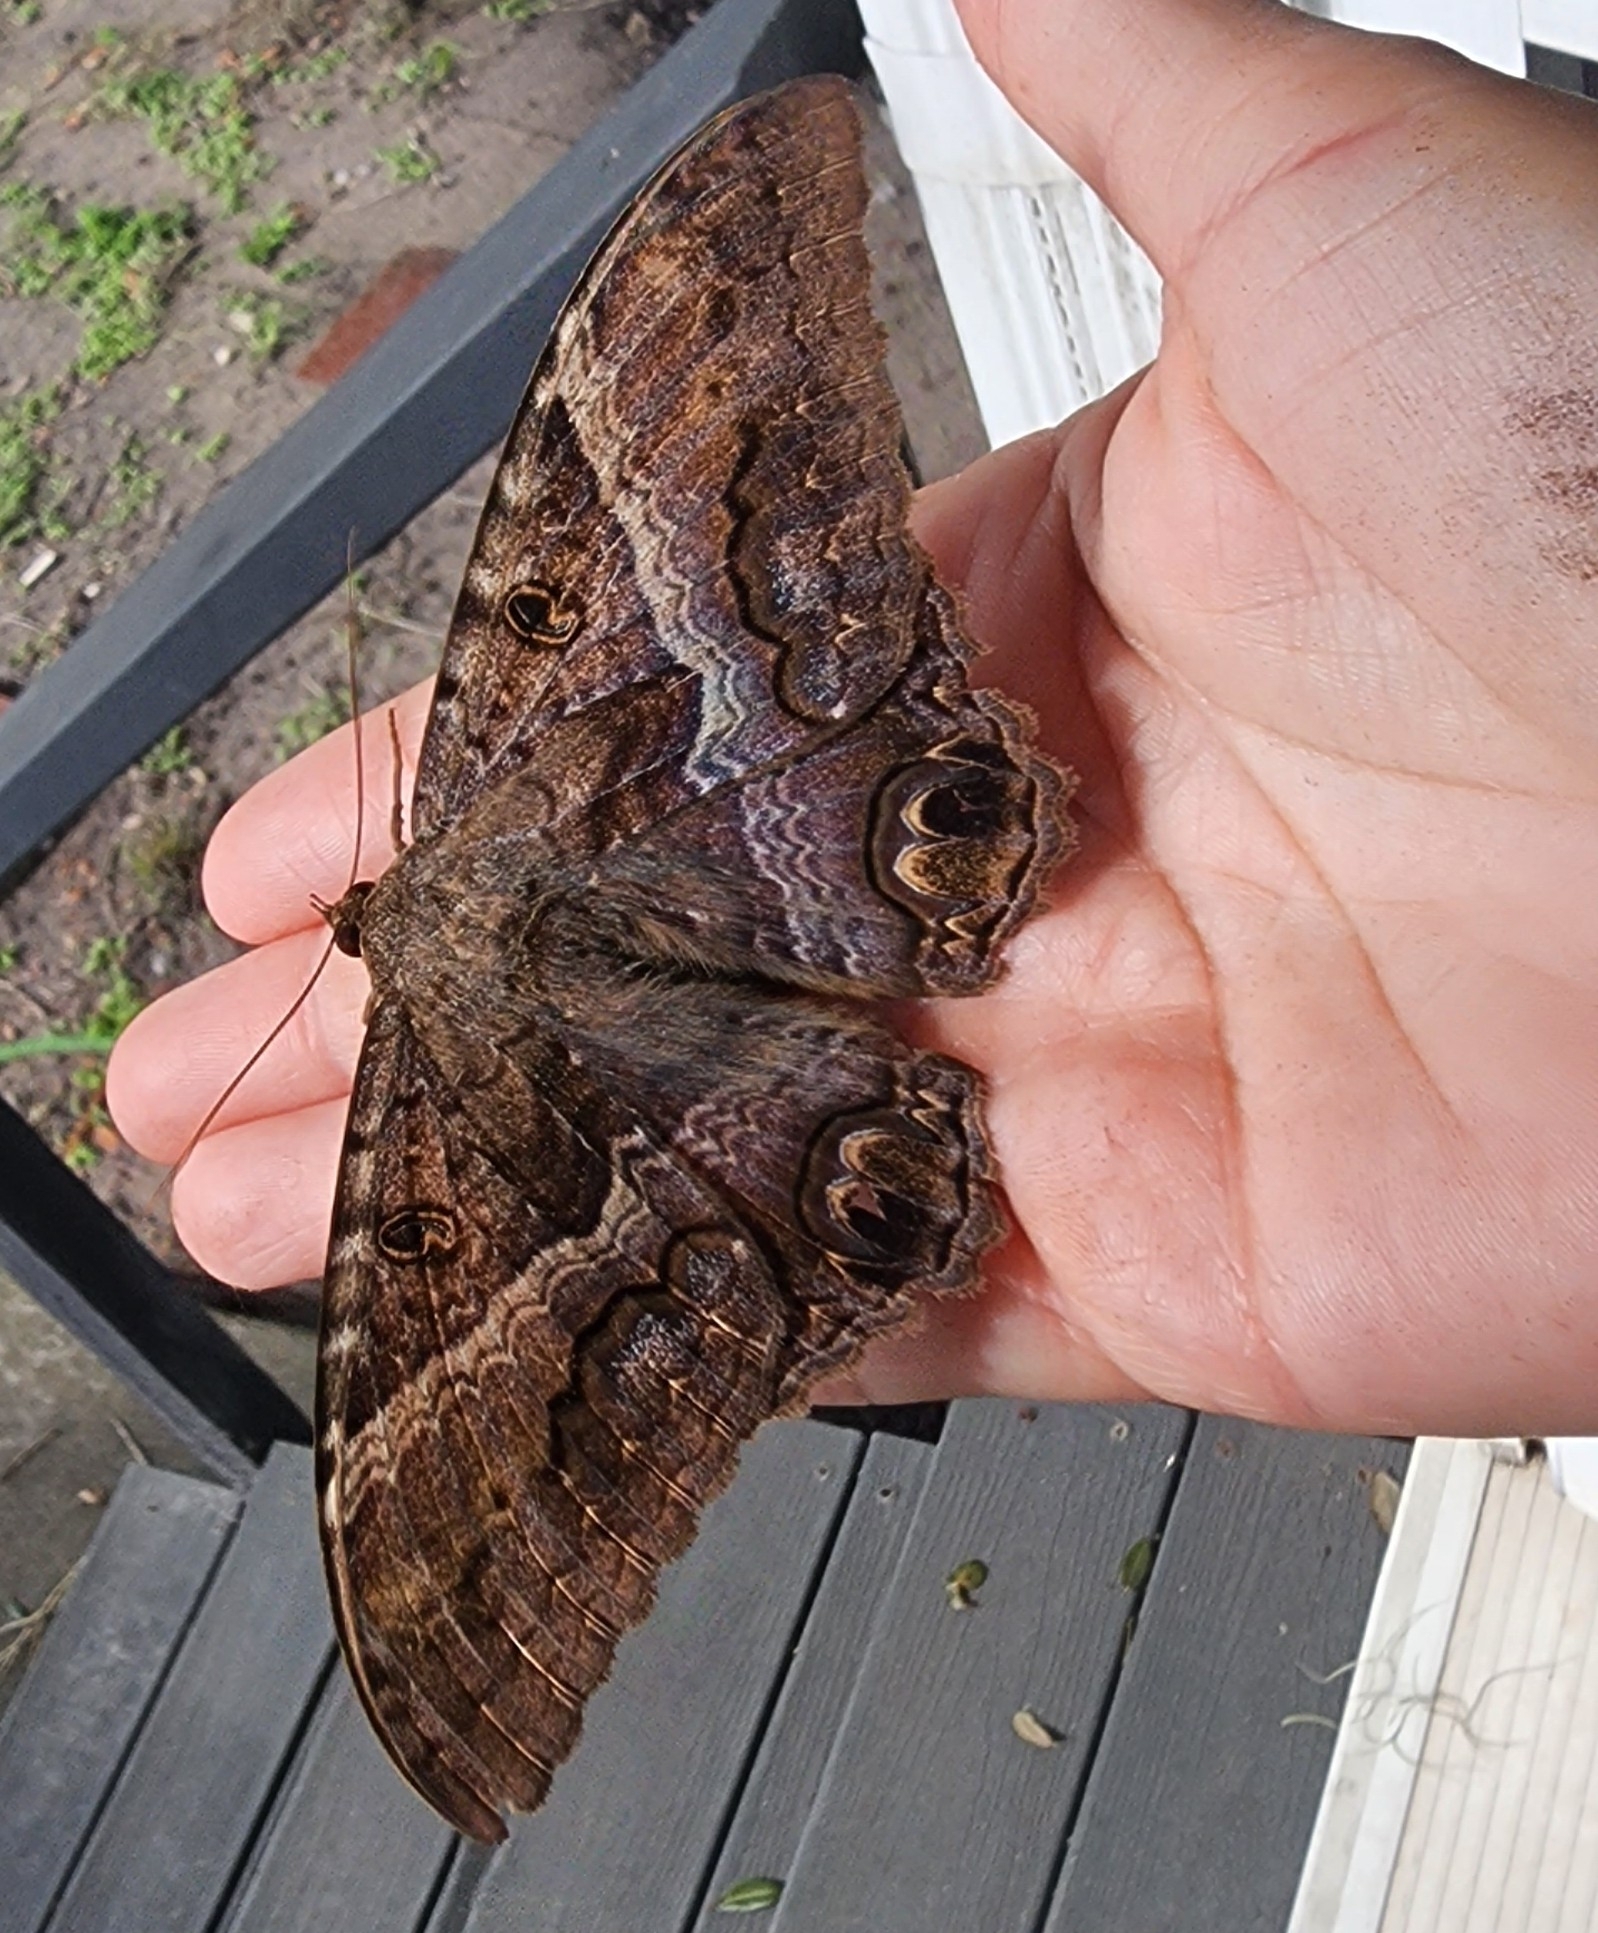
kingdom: Animalia
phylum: Arthropoda
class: Insecta
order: Lepidoptera
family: Erebidae
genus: Ascalapha
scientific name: Ascalapha odorata
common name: Black witch
